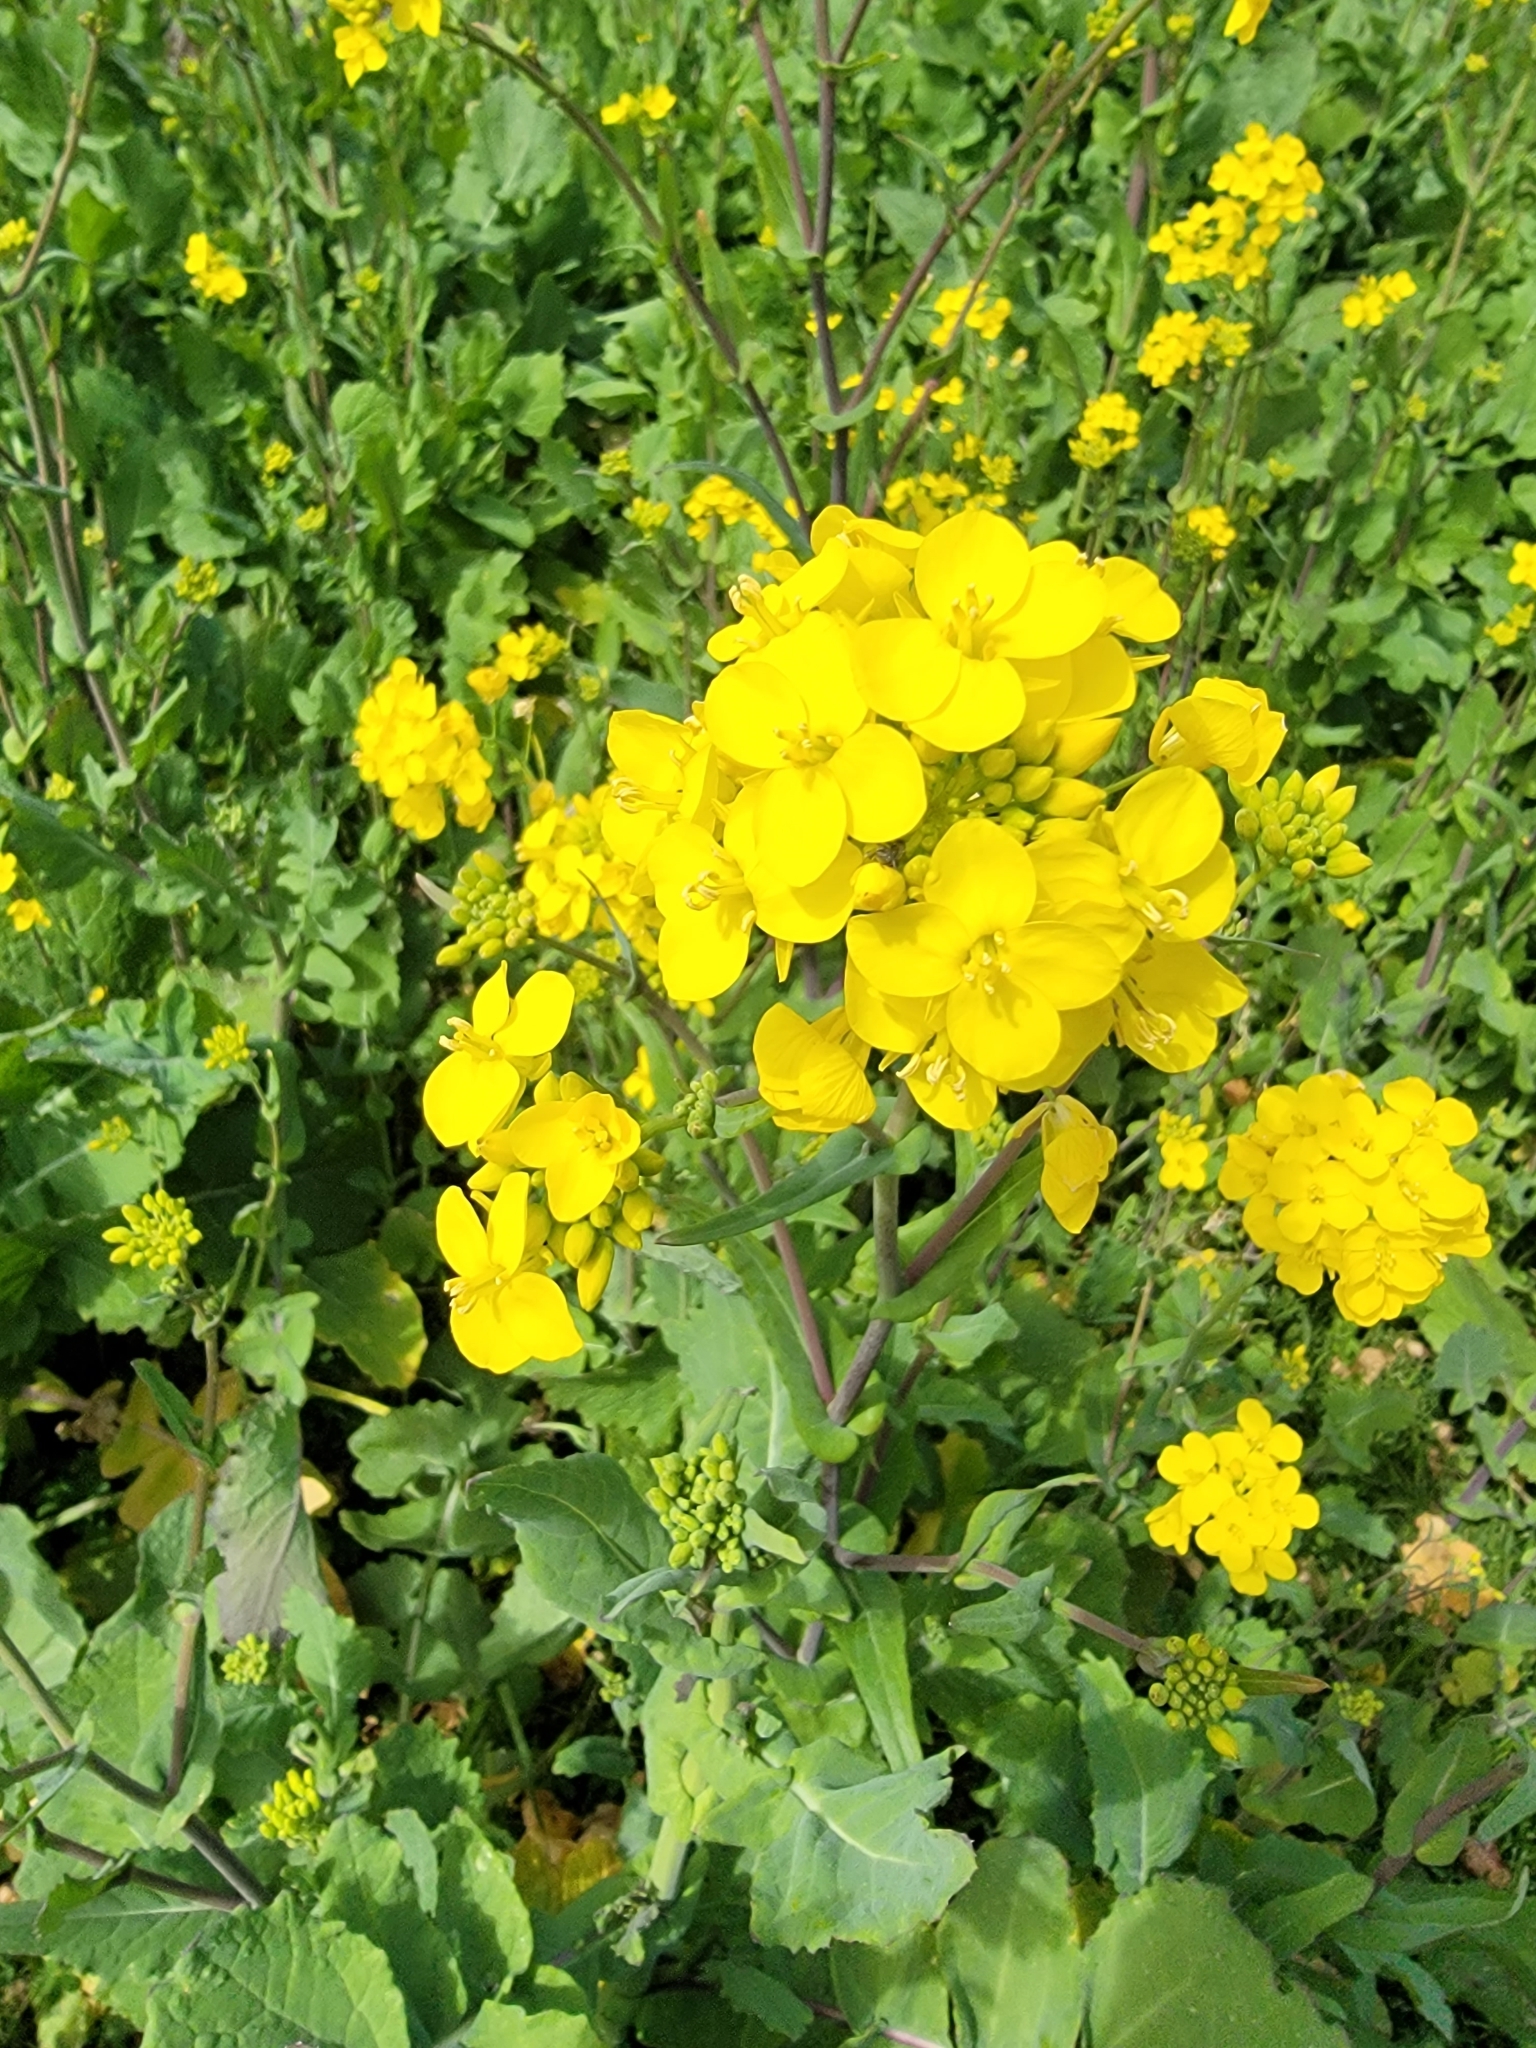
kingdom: Plantae
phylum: Tracheophyta
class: Magnoliopsida
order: Brassicales
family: Brassicaceae
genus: Brassica
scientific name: Brassica rapa
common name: Field mustard
